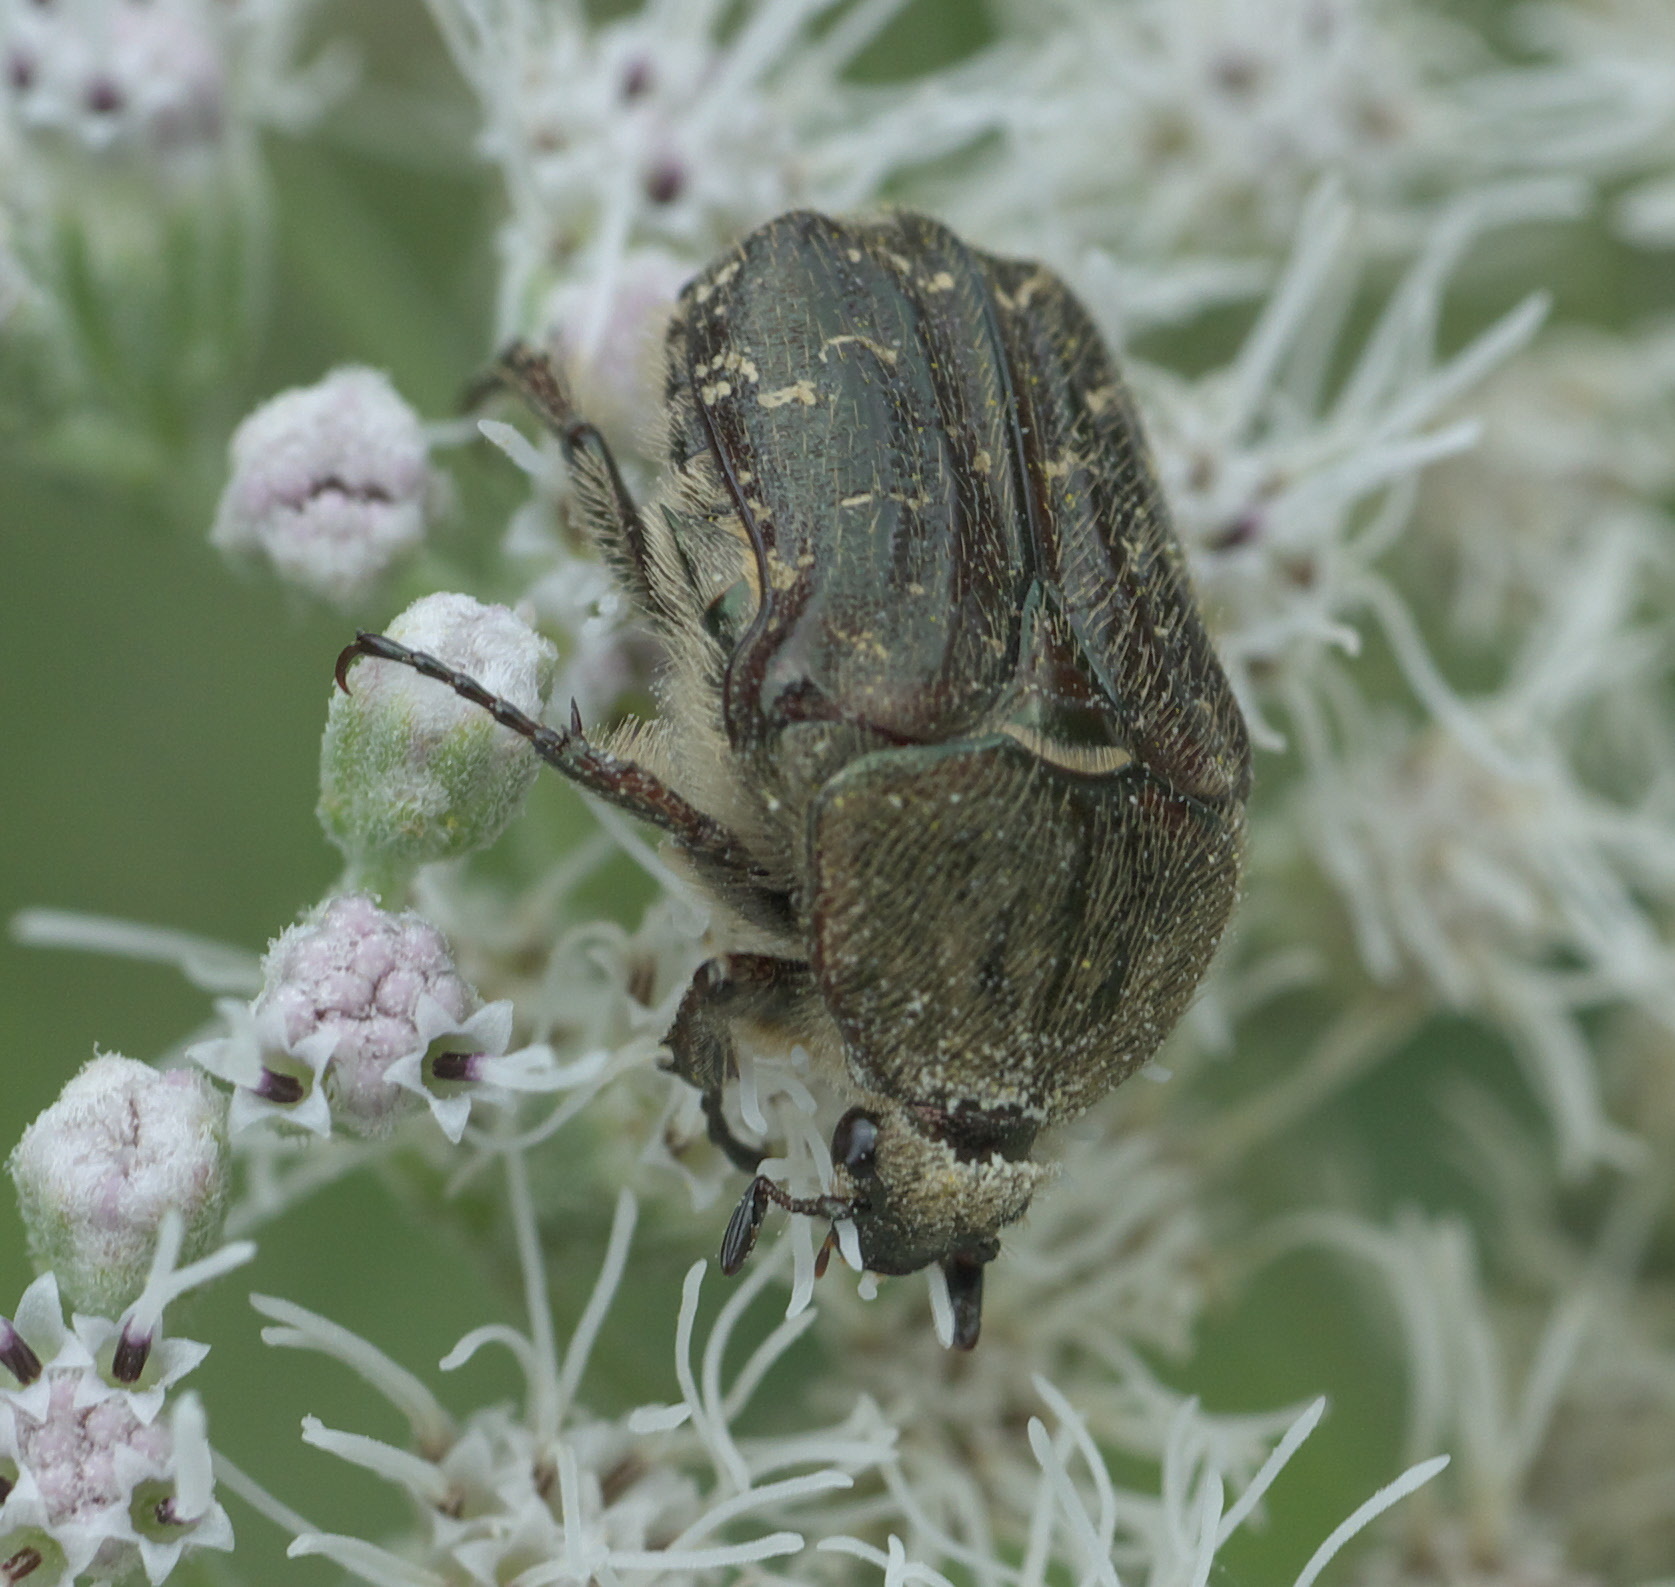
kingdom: Animalia
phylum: Arthropoda
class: Insecta
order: Coleoptera
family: Scarabaeidae
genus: Euphoria
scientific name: Euphoria sepulcralis
